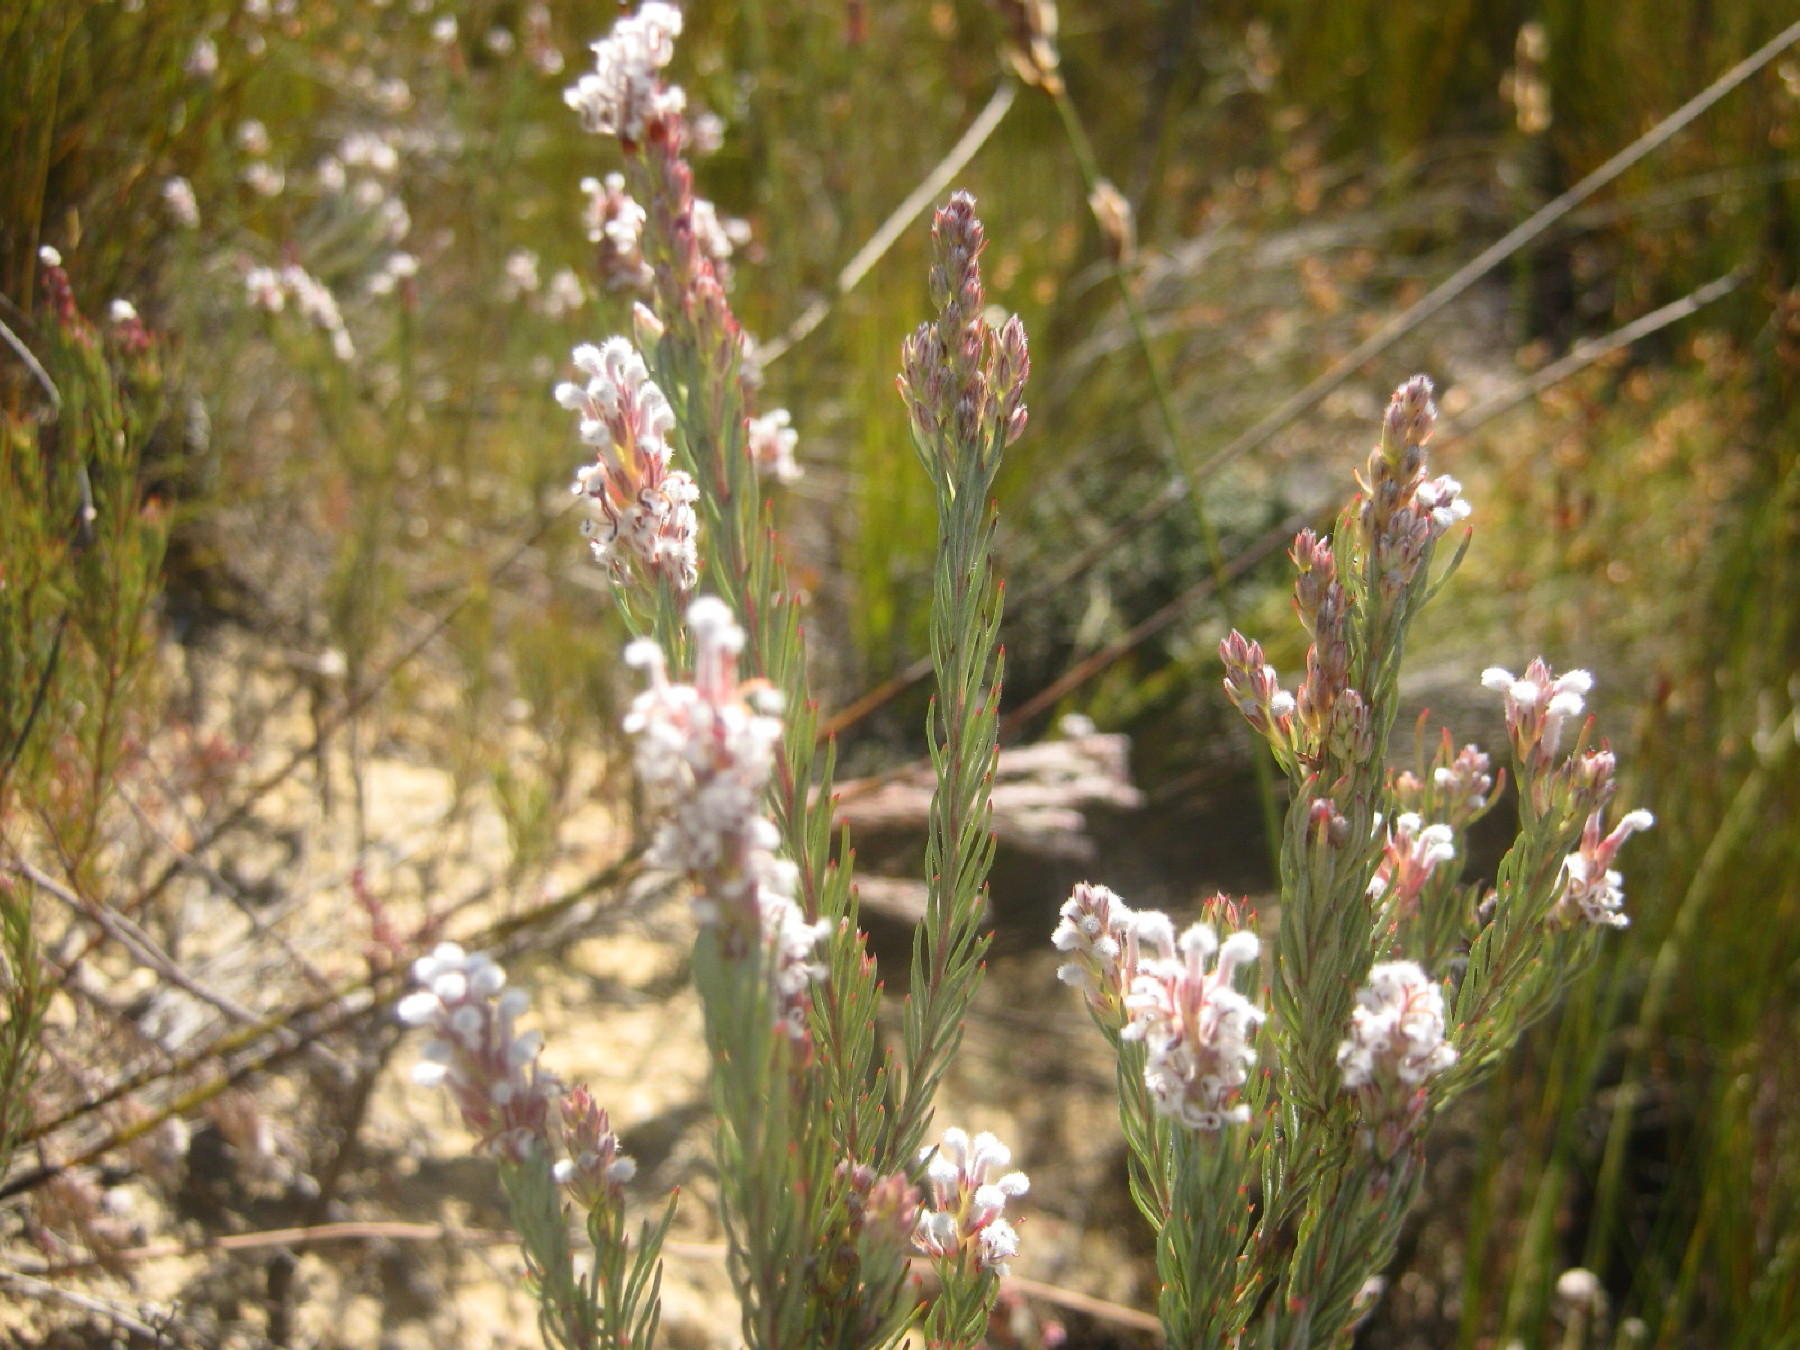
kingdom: Plantae
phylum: Tracheophyta
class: Magnoliopsida
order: Proteales
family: Proteaceae
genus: Spatalla
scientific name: Spatalla barbigera
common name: Fine-leaf spoon
